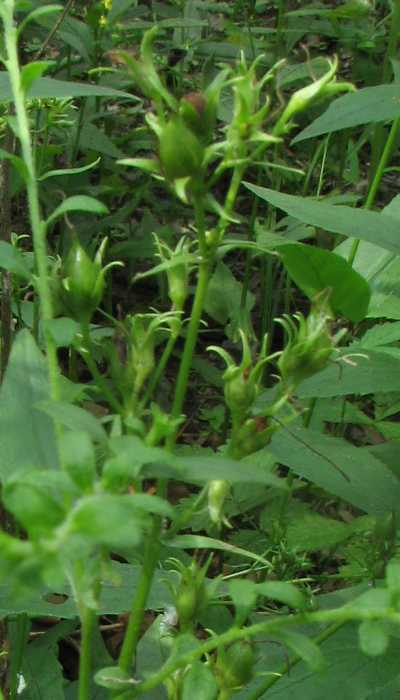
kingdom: Plantae
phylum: Tracheophyta
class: Magnoliopsida
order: Lamiales
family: Plantaginaceae
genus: Penstemon
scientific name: Penstemon digitalis
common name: Foxglove beardtongue
